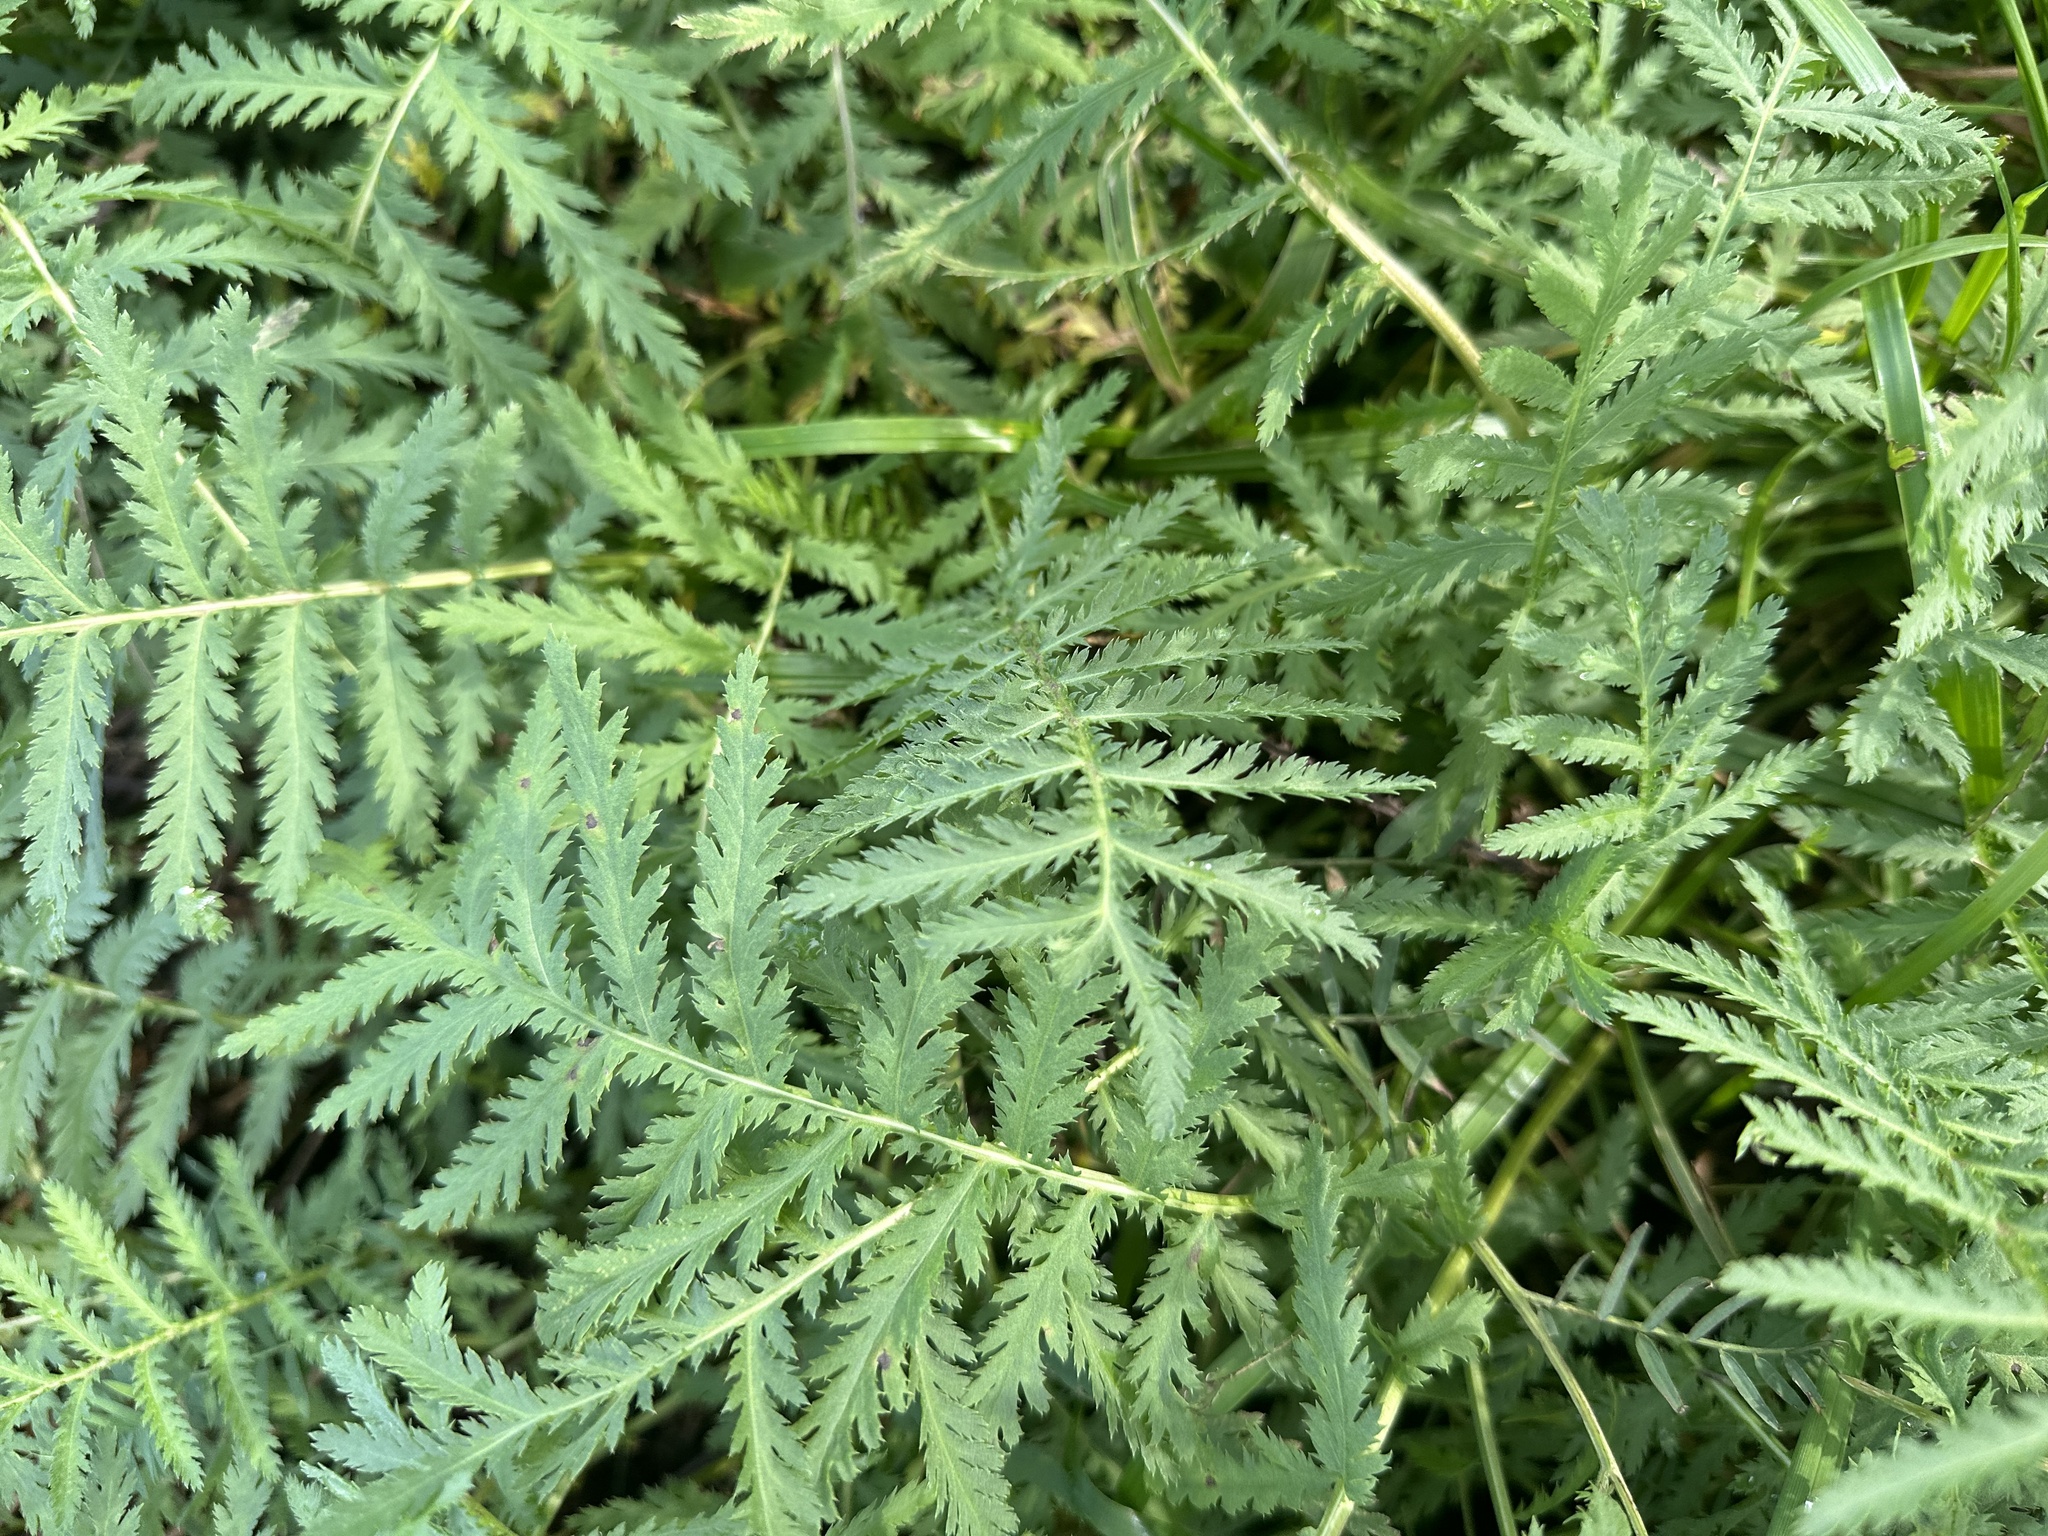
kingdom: Plantae
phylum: Tracheophyta
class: Magnoliopsida
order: Asterales
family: Asteraceae
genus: Tanacetum
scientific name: Tanacetum vulgare
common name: Common tansy
